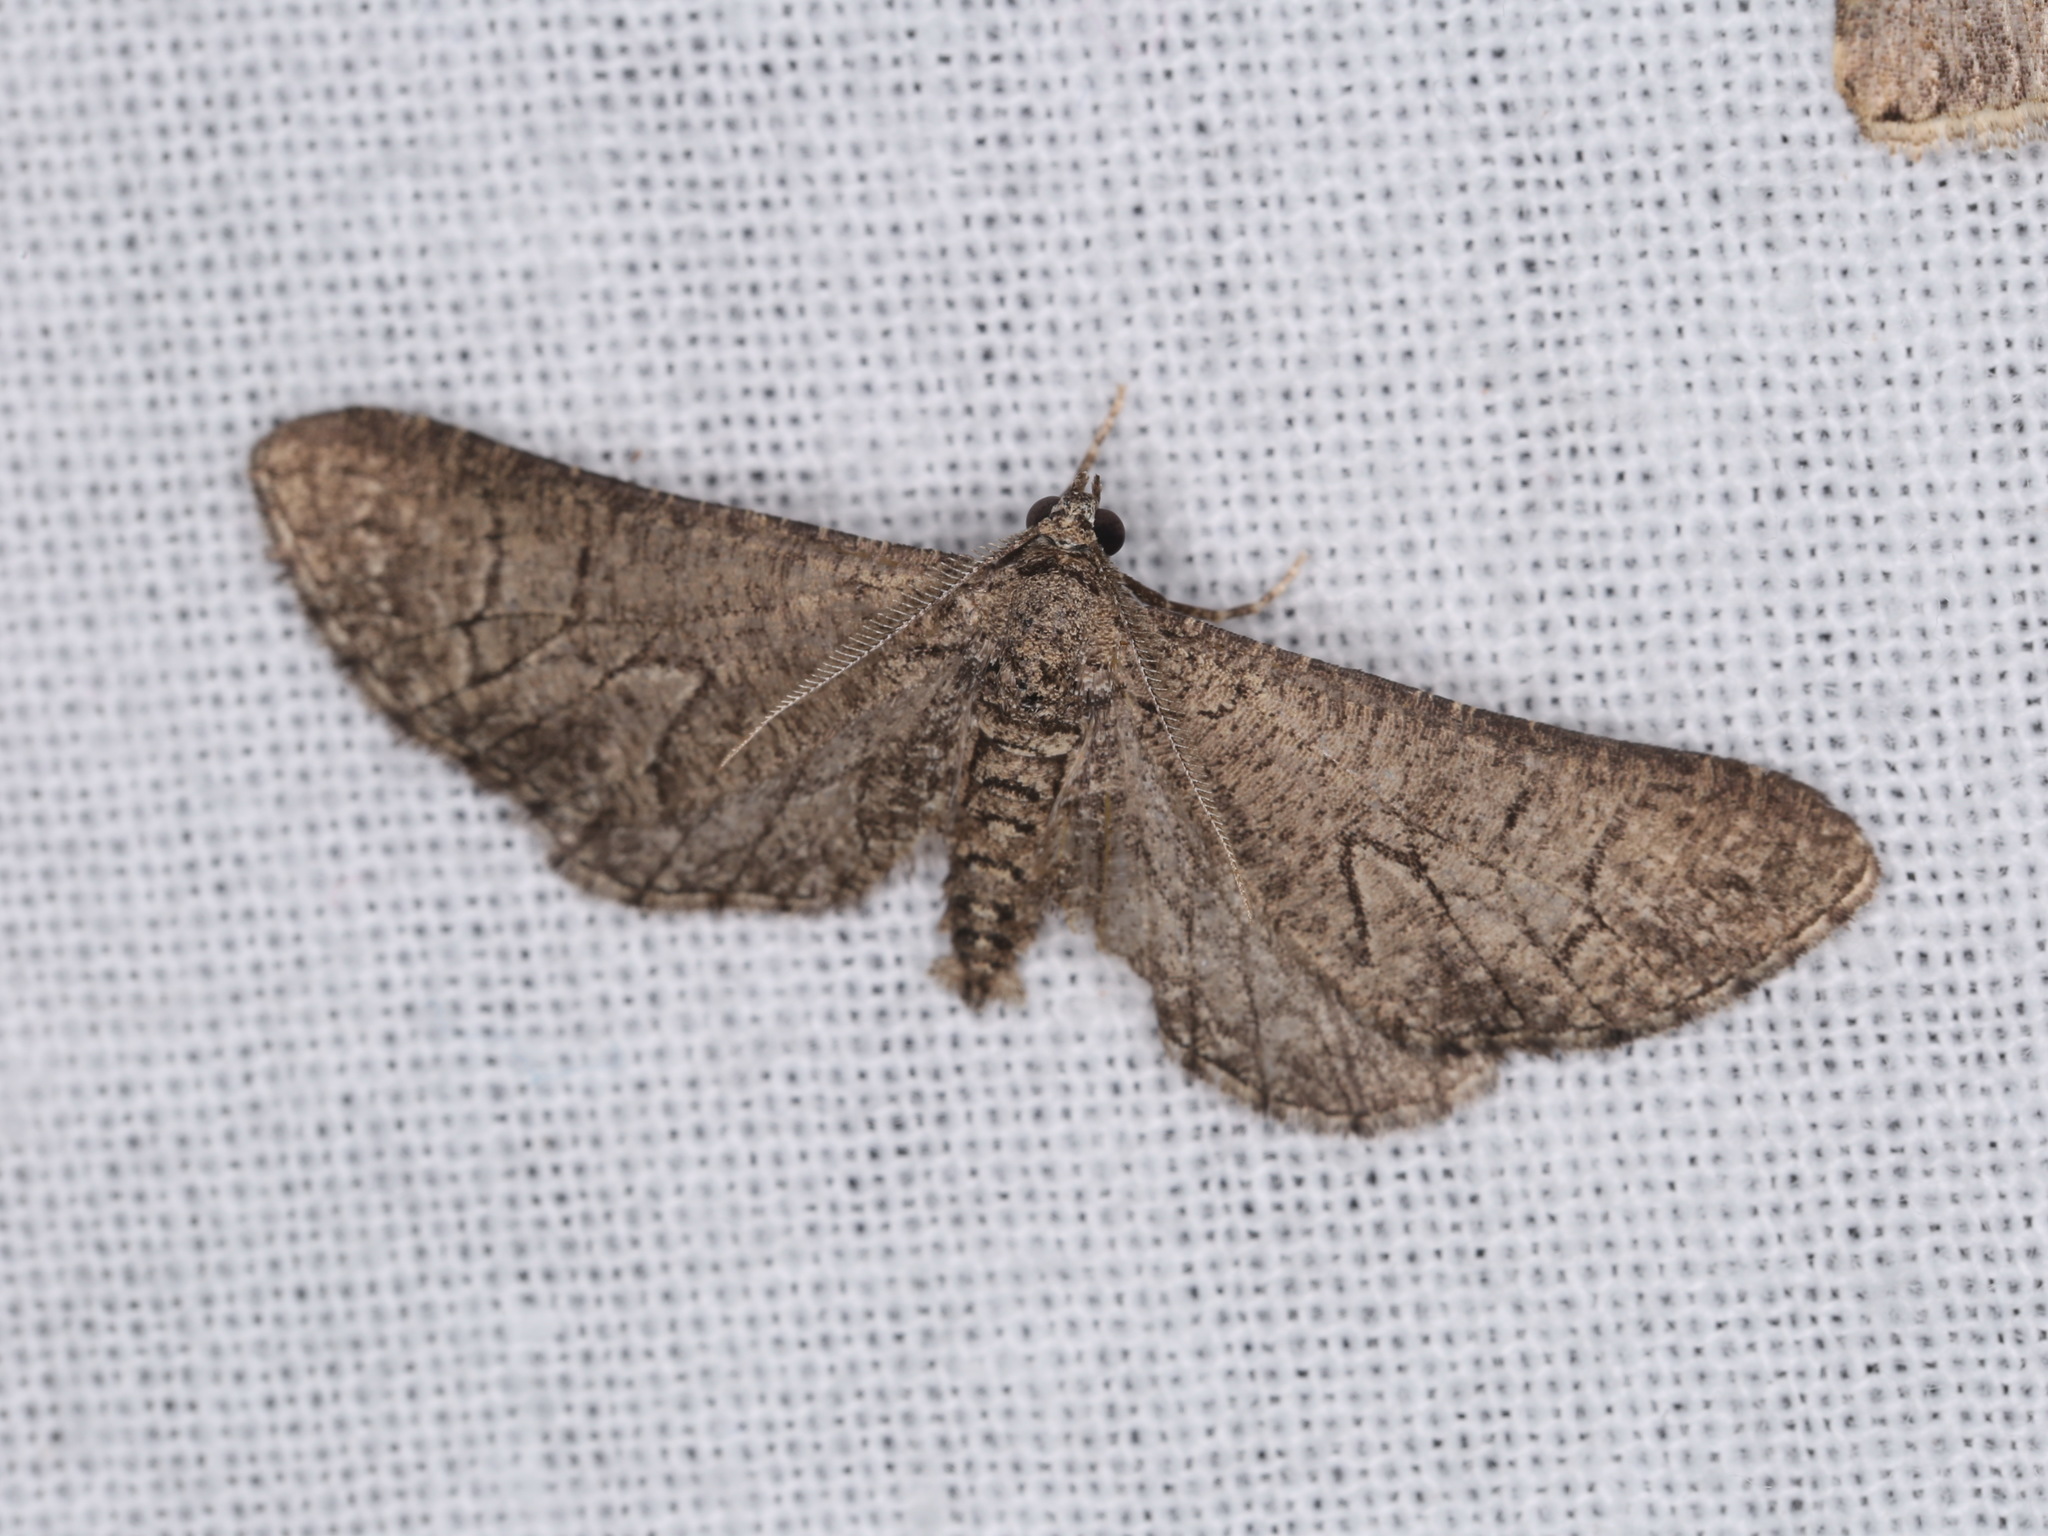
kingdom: Animalia
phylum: Arthropoda
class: Insecta
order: Lepidoptera
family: Geometridae
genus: Ectropis
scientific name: Ectropis hieroglyphica
